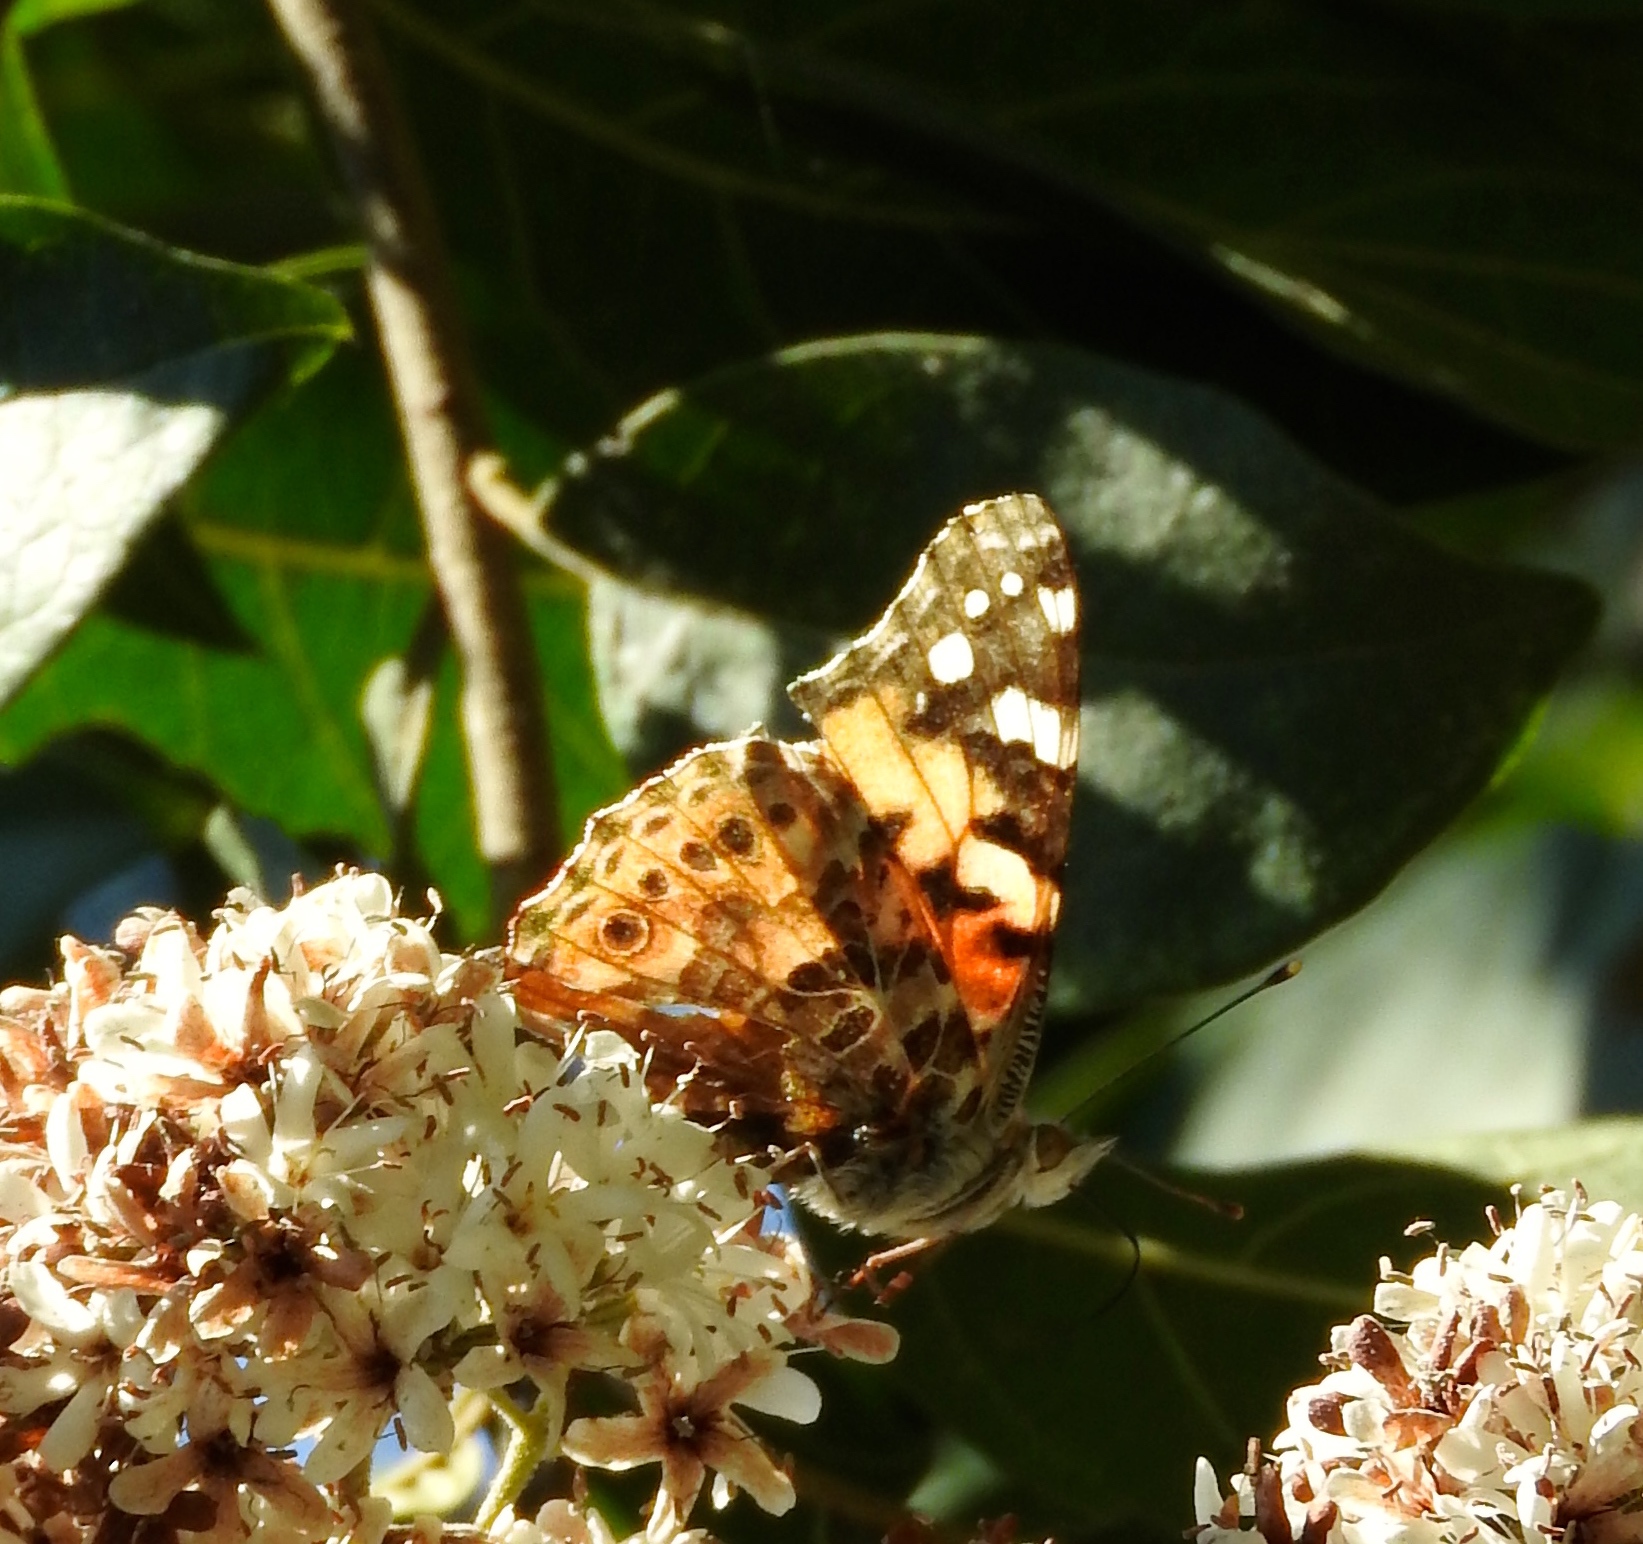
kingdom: Animalia
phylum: Arthropoda
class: Insecta
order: Lepidoptera
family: Nymphalidae
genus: Vanessa
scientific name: Vanessa cardui
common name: Painted lady
